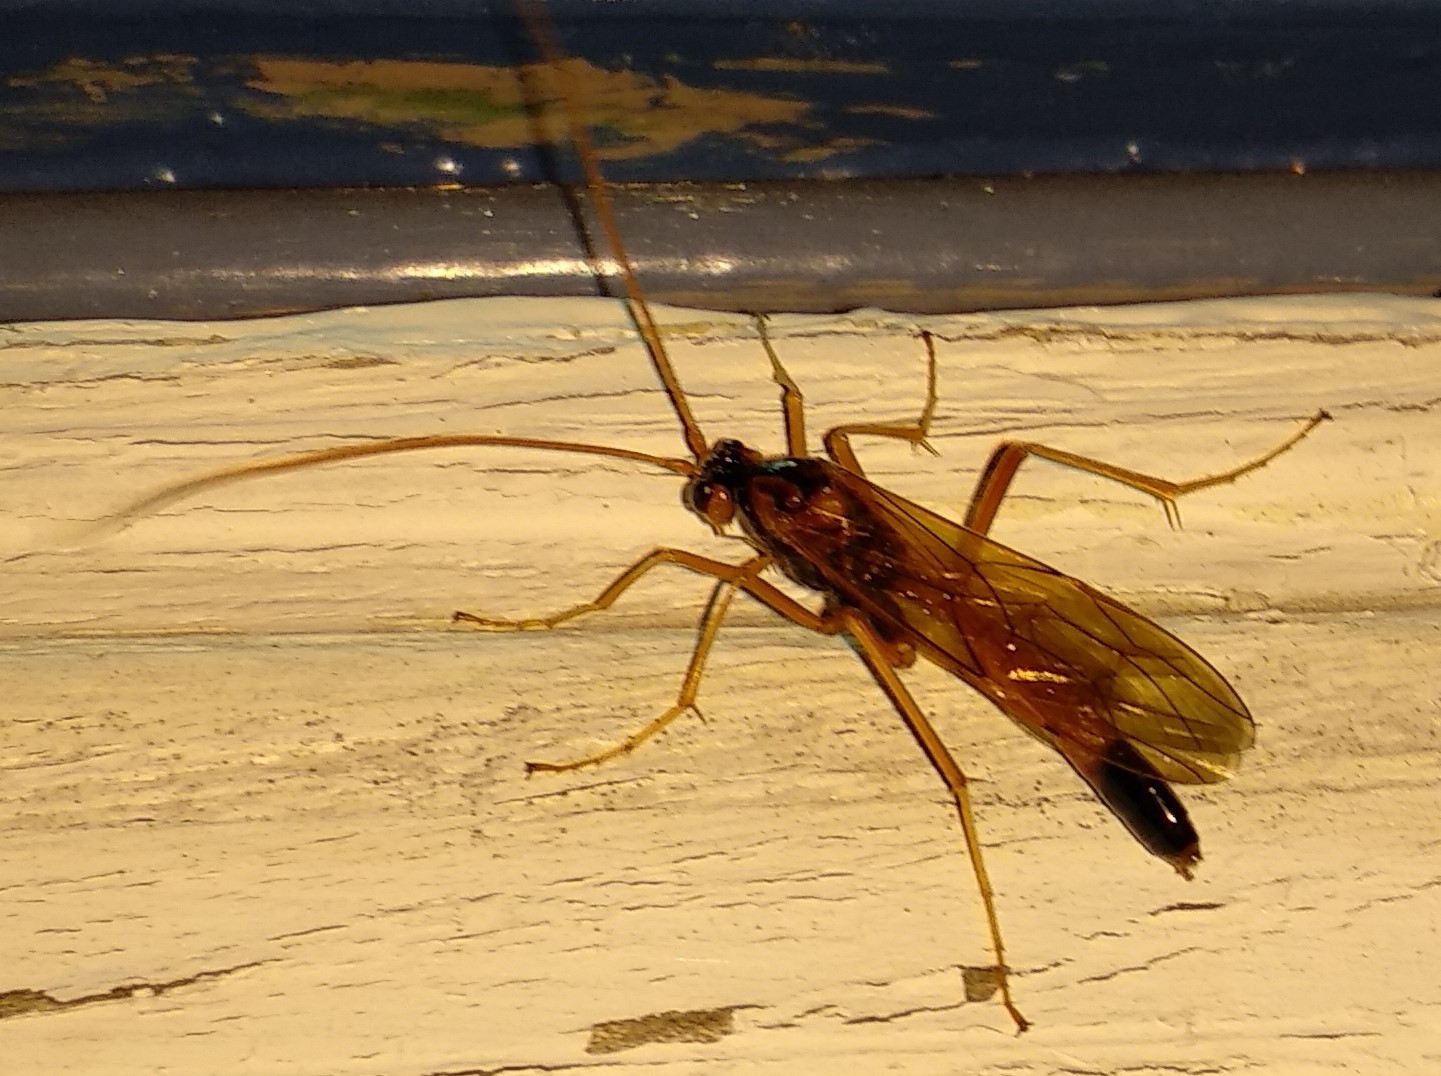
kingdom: Animalia
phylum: Arthropoda
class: Insecta
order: Hymenoptera
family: Ichneumonidae
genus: Opheltes
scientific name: Opheltes glaucopterus
